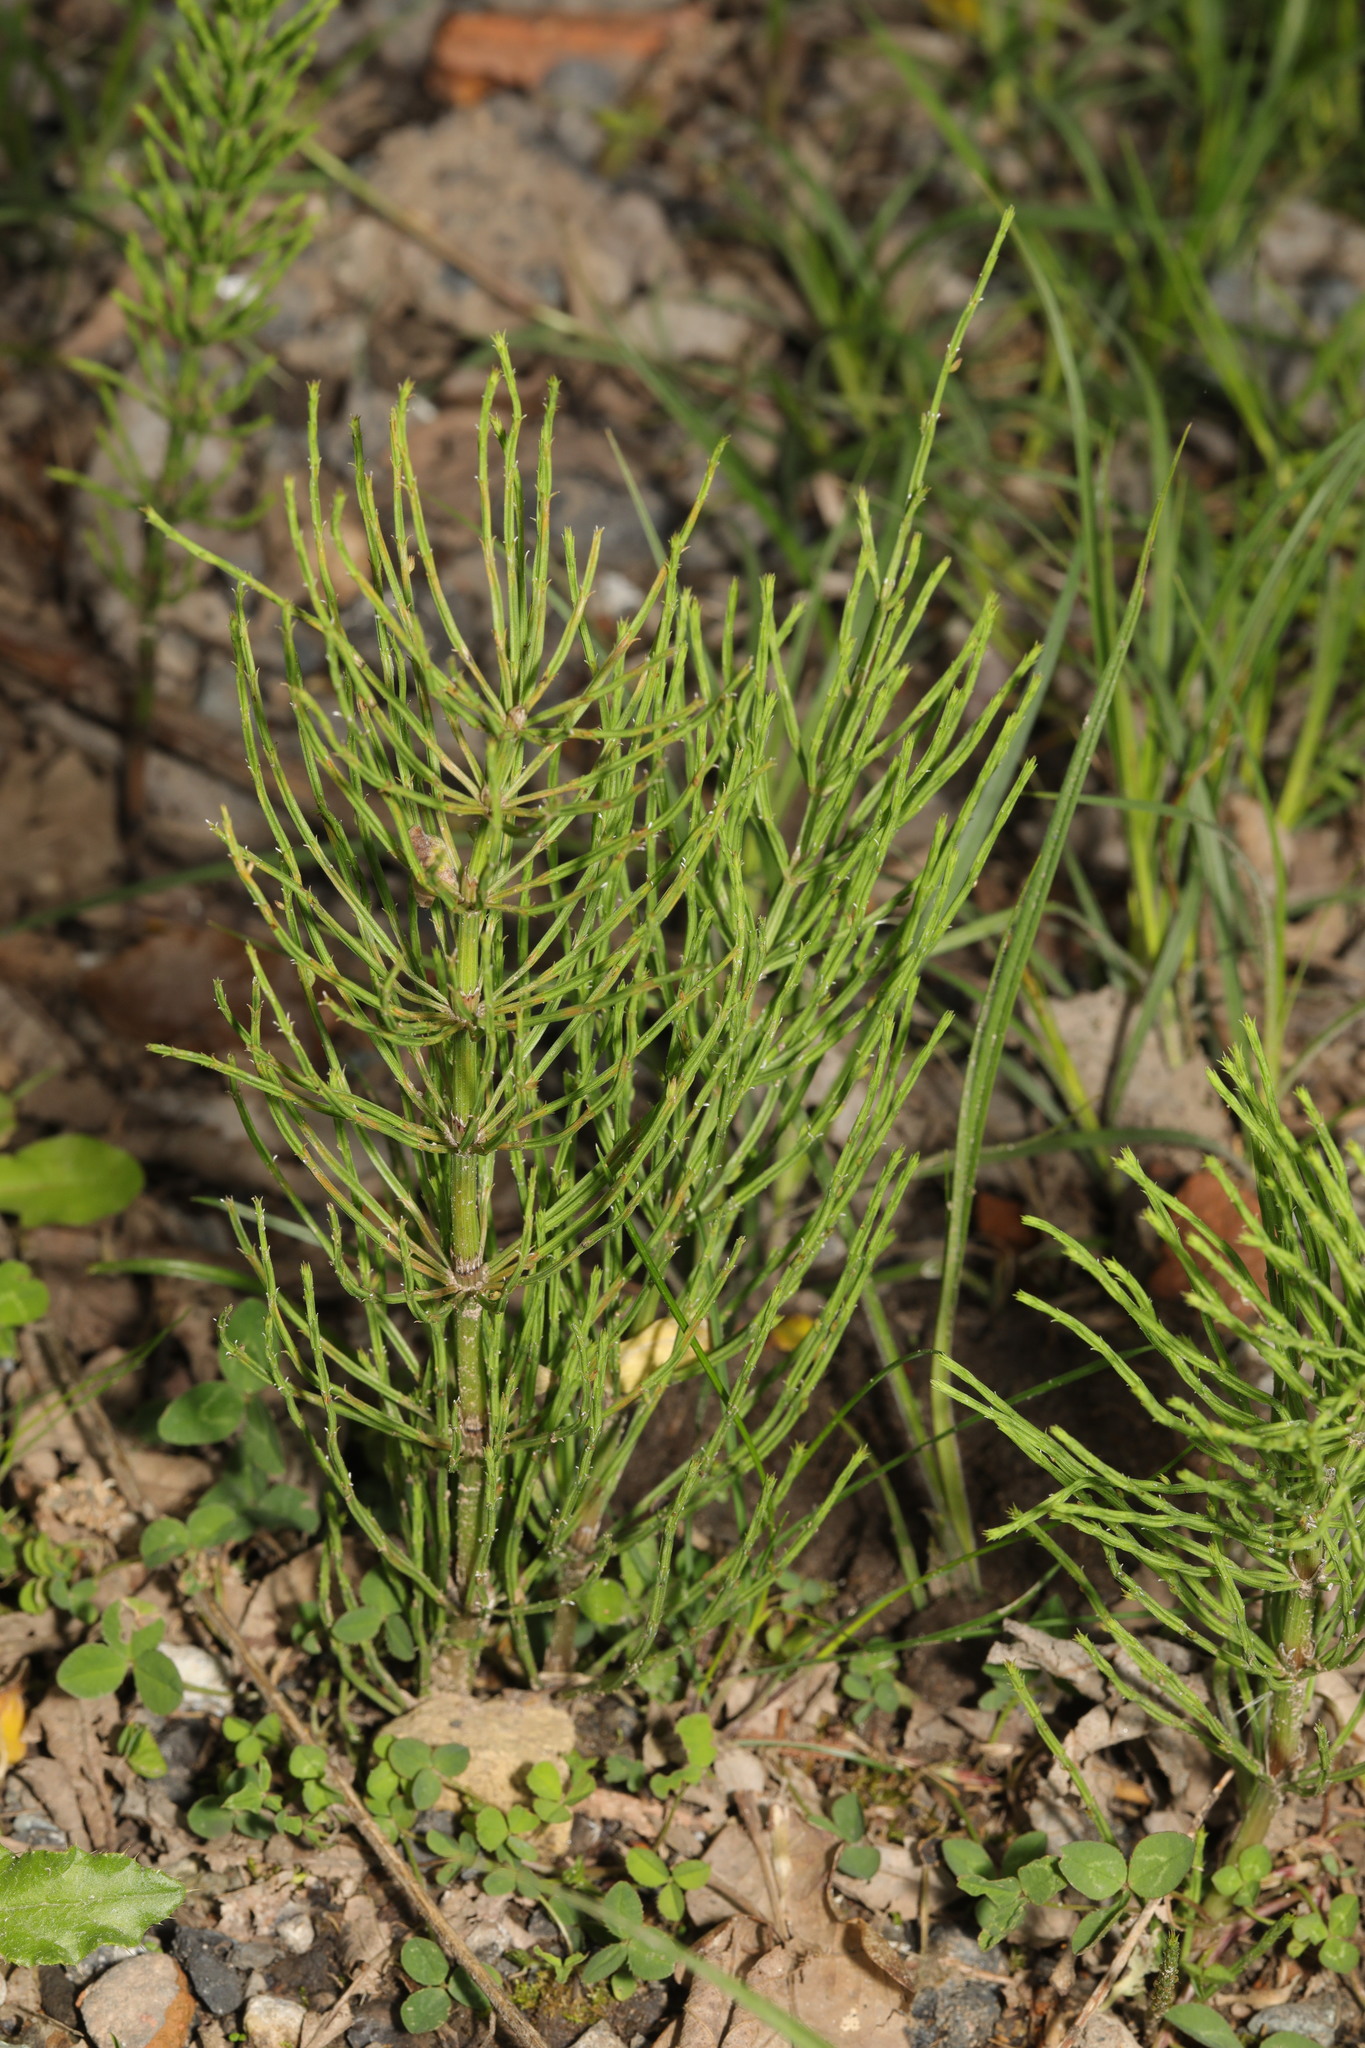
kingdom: Plantae
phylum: Tracheophyta
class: Polypodiopsida
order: Equisetales
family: Equisetaceae
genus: Equisetum
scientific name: Equisetum arvense
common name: Field horsetail
